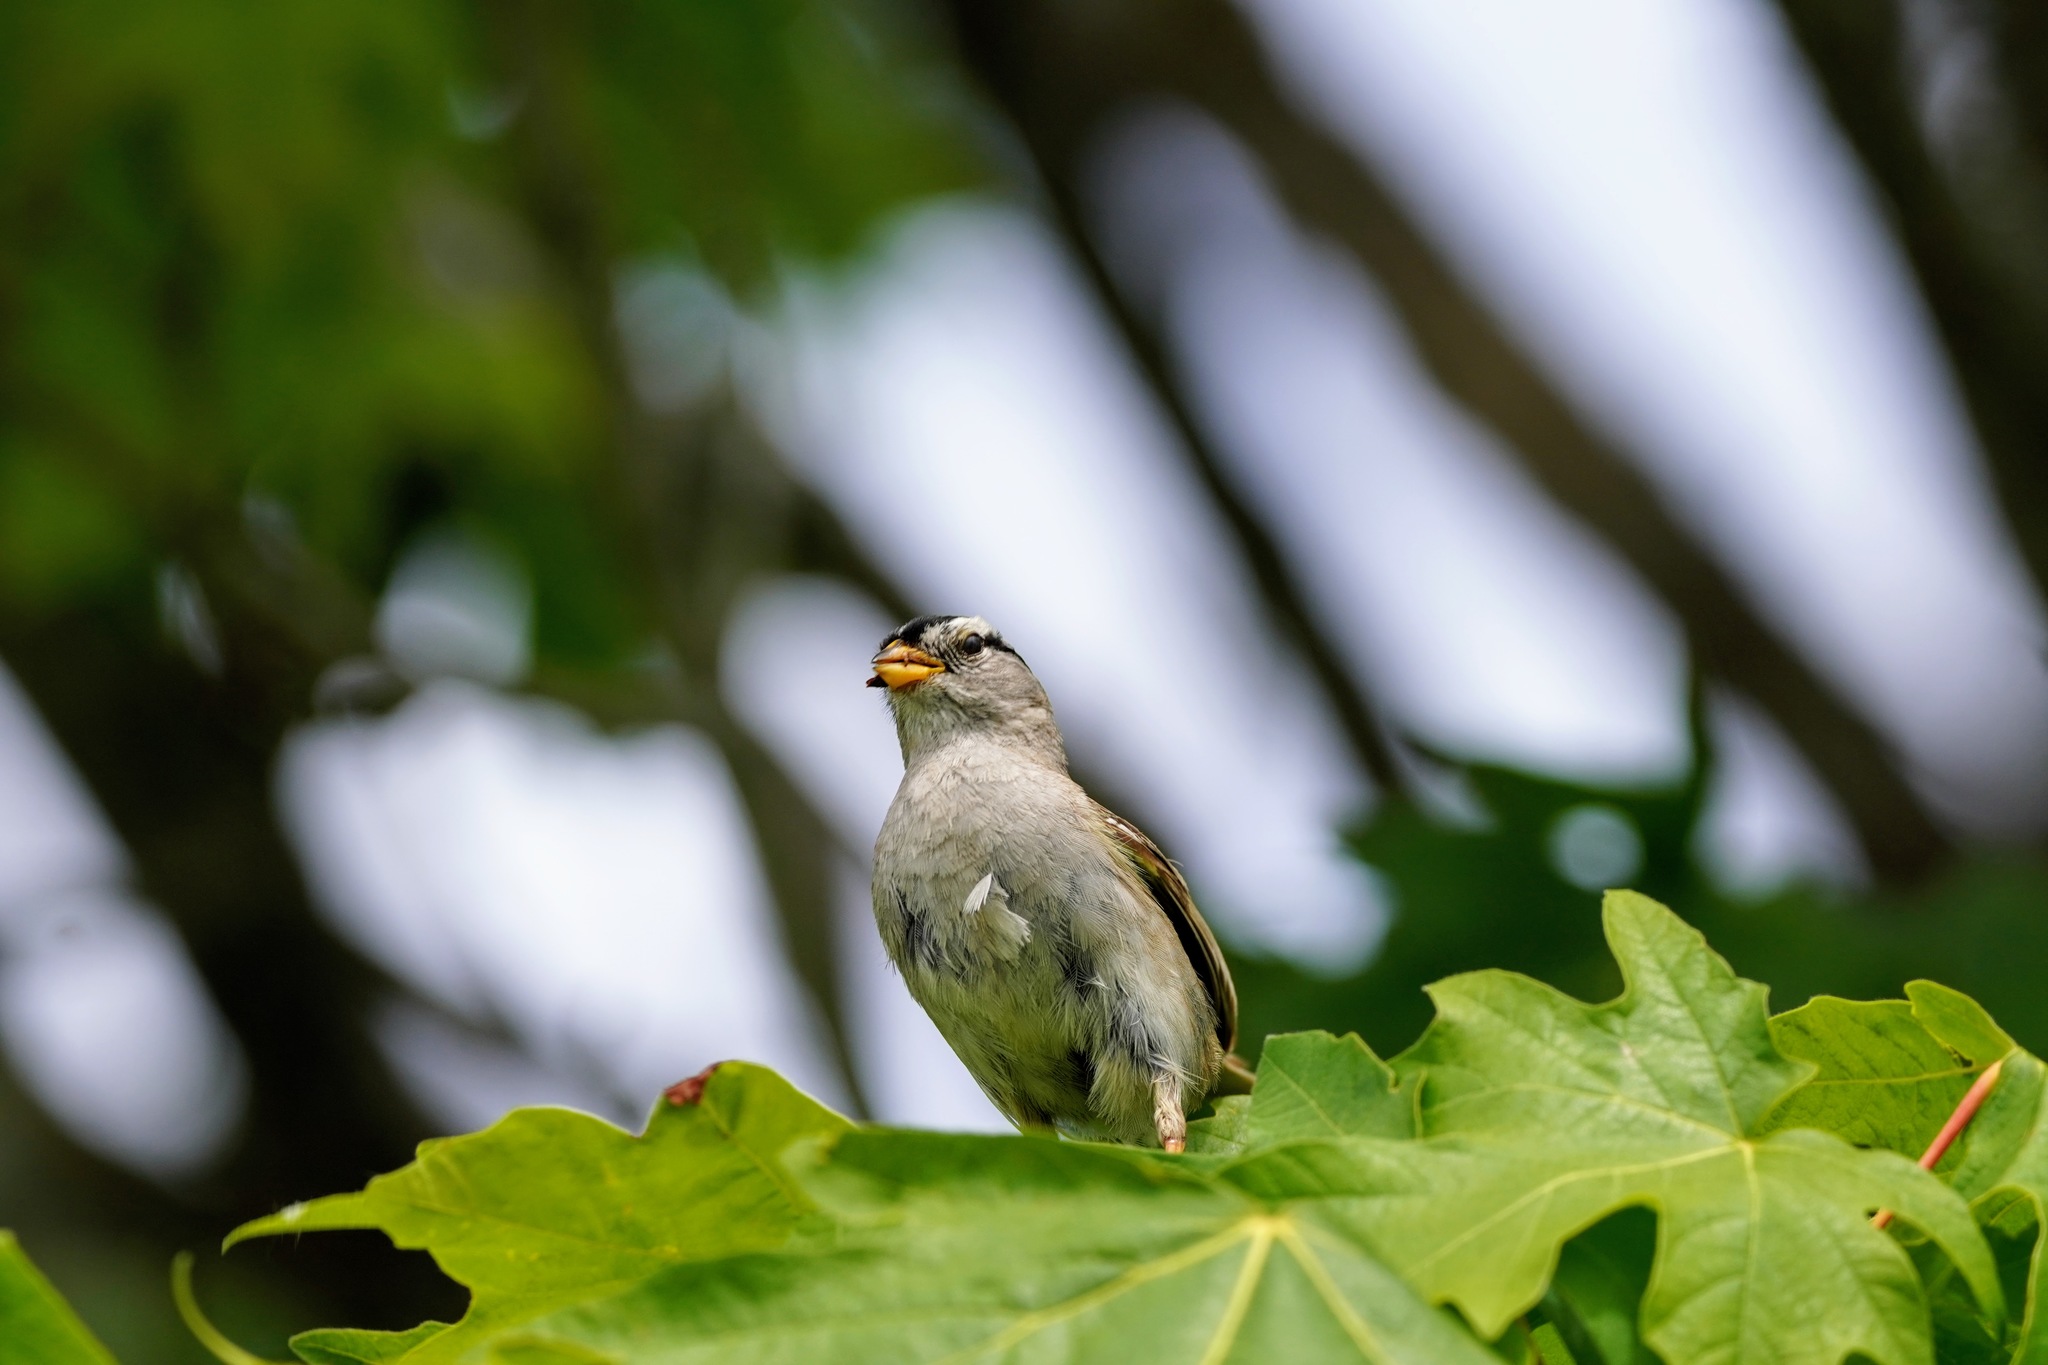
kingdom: Animalia
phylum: Chordata
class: Aves
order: Passeriformes
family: Passerellidae
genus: Zonotrichia
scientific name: Zonotrichia leucophrys
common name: White-crowned sparrow
